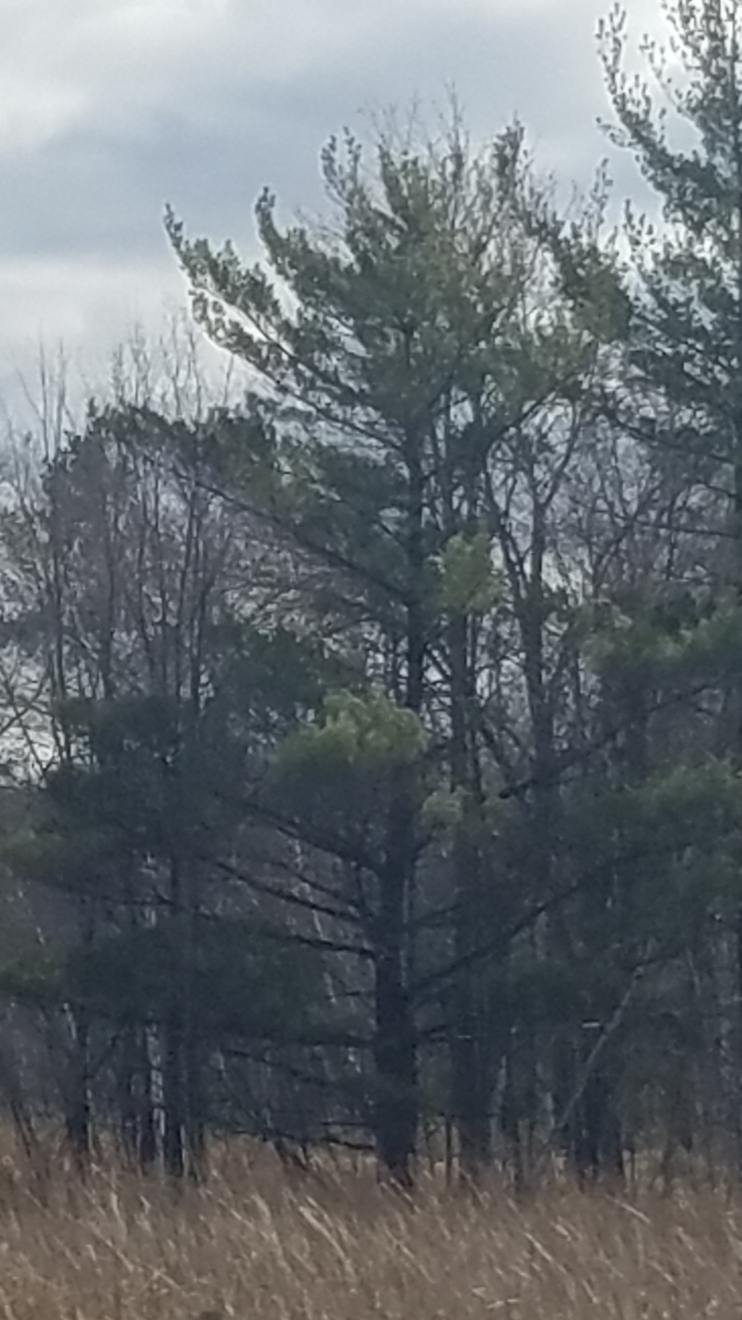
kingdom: Plantae
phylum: Tracheophyta
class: Pinopsida
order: Pinales
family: Pinaceae
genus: Pinus
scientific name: Pinus strobus
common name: Weymouth pine
